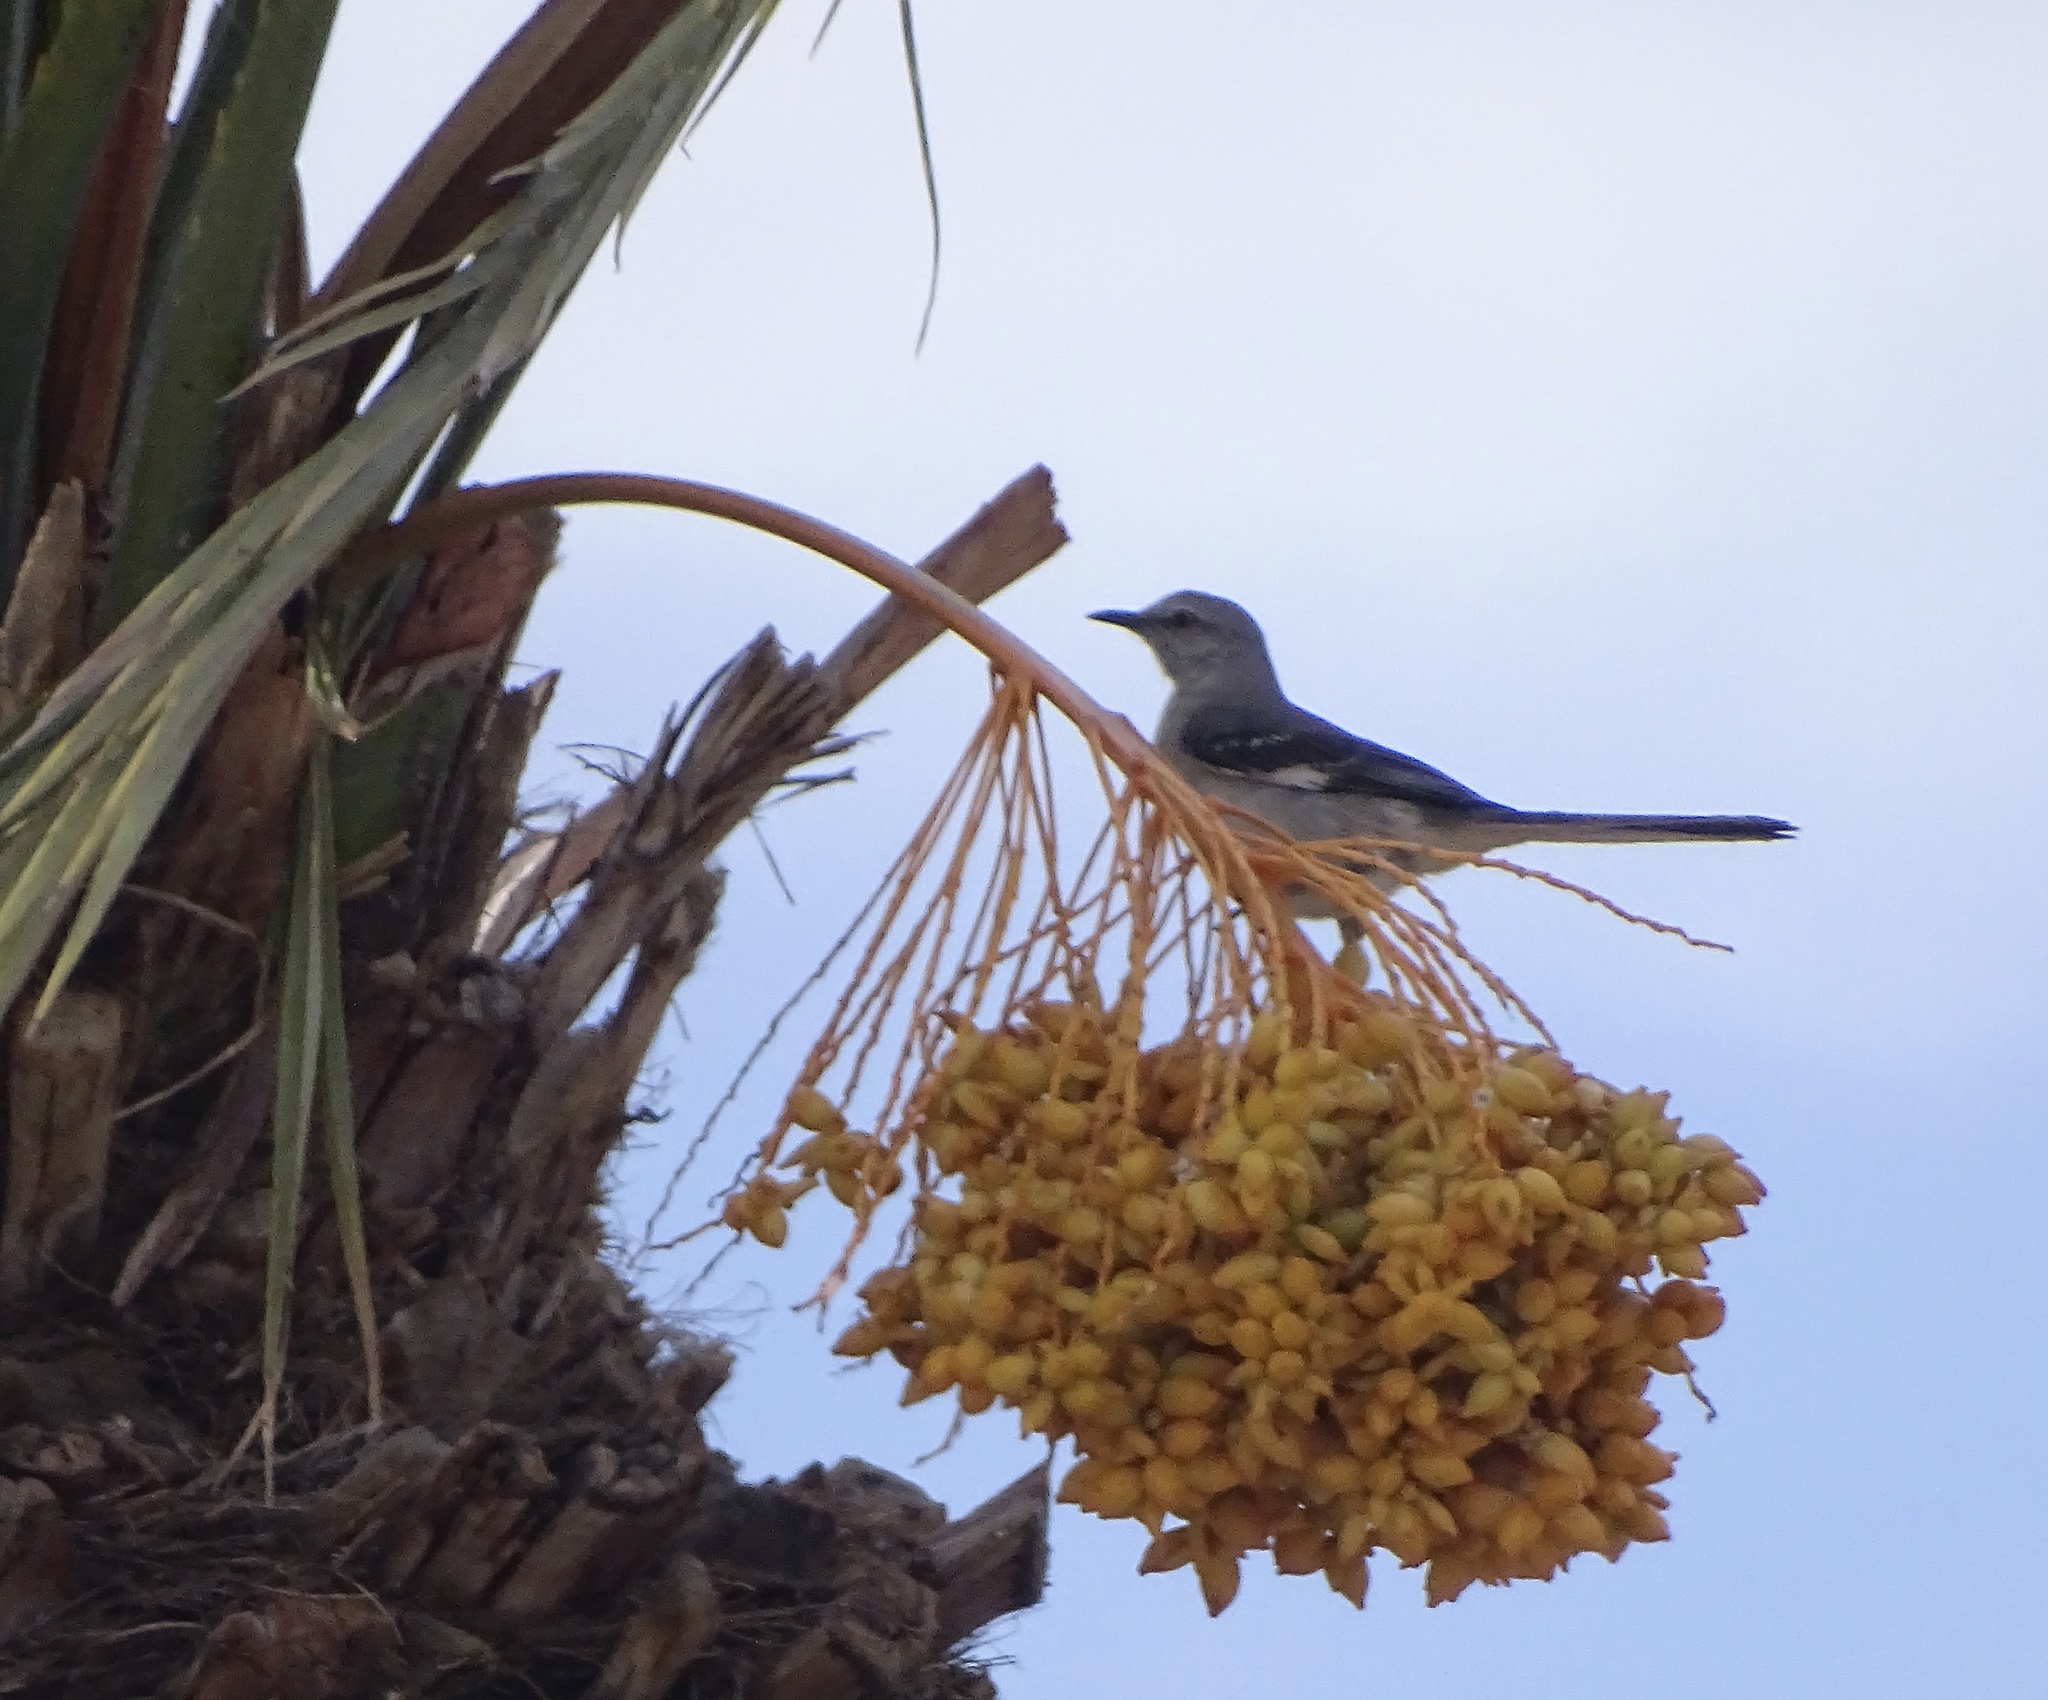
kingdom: Animalia
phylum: Chordata
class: Aves
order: Passeriformes
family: Mimidae
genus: Mimus
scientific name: Mimus polyglottos
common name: Northern mockingbird
